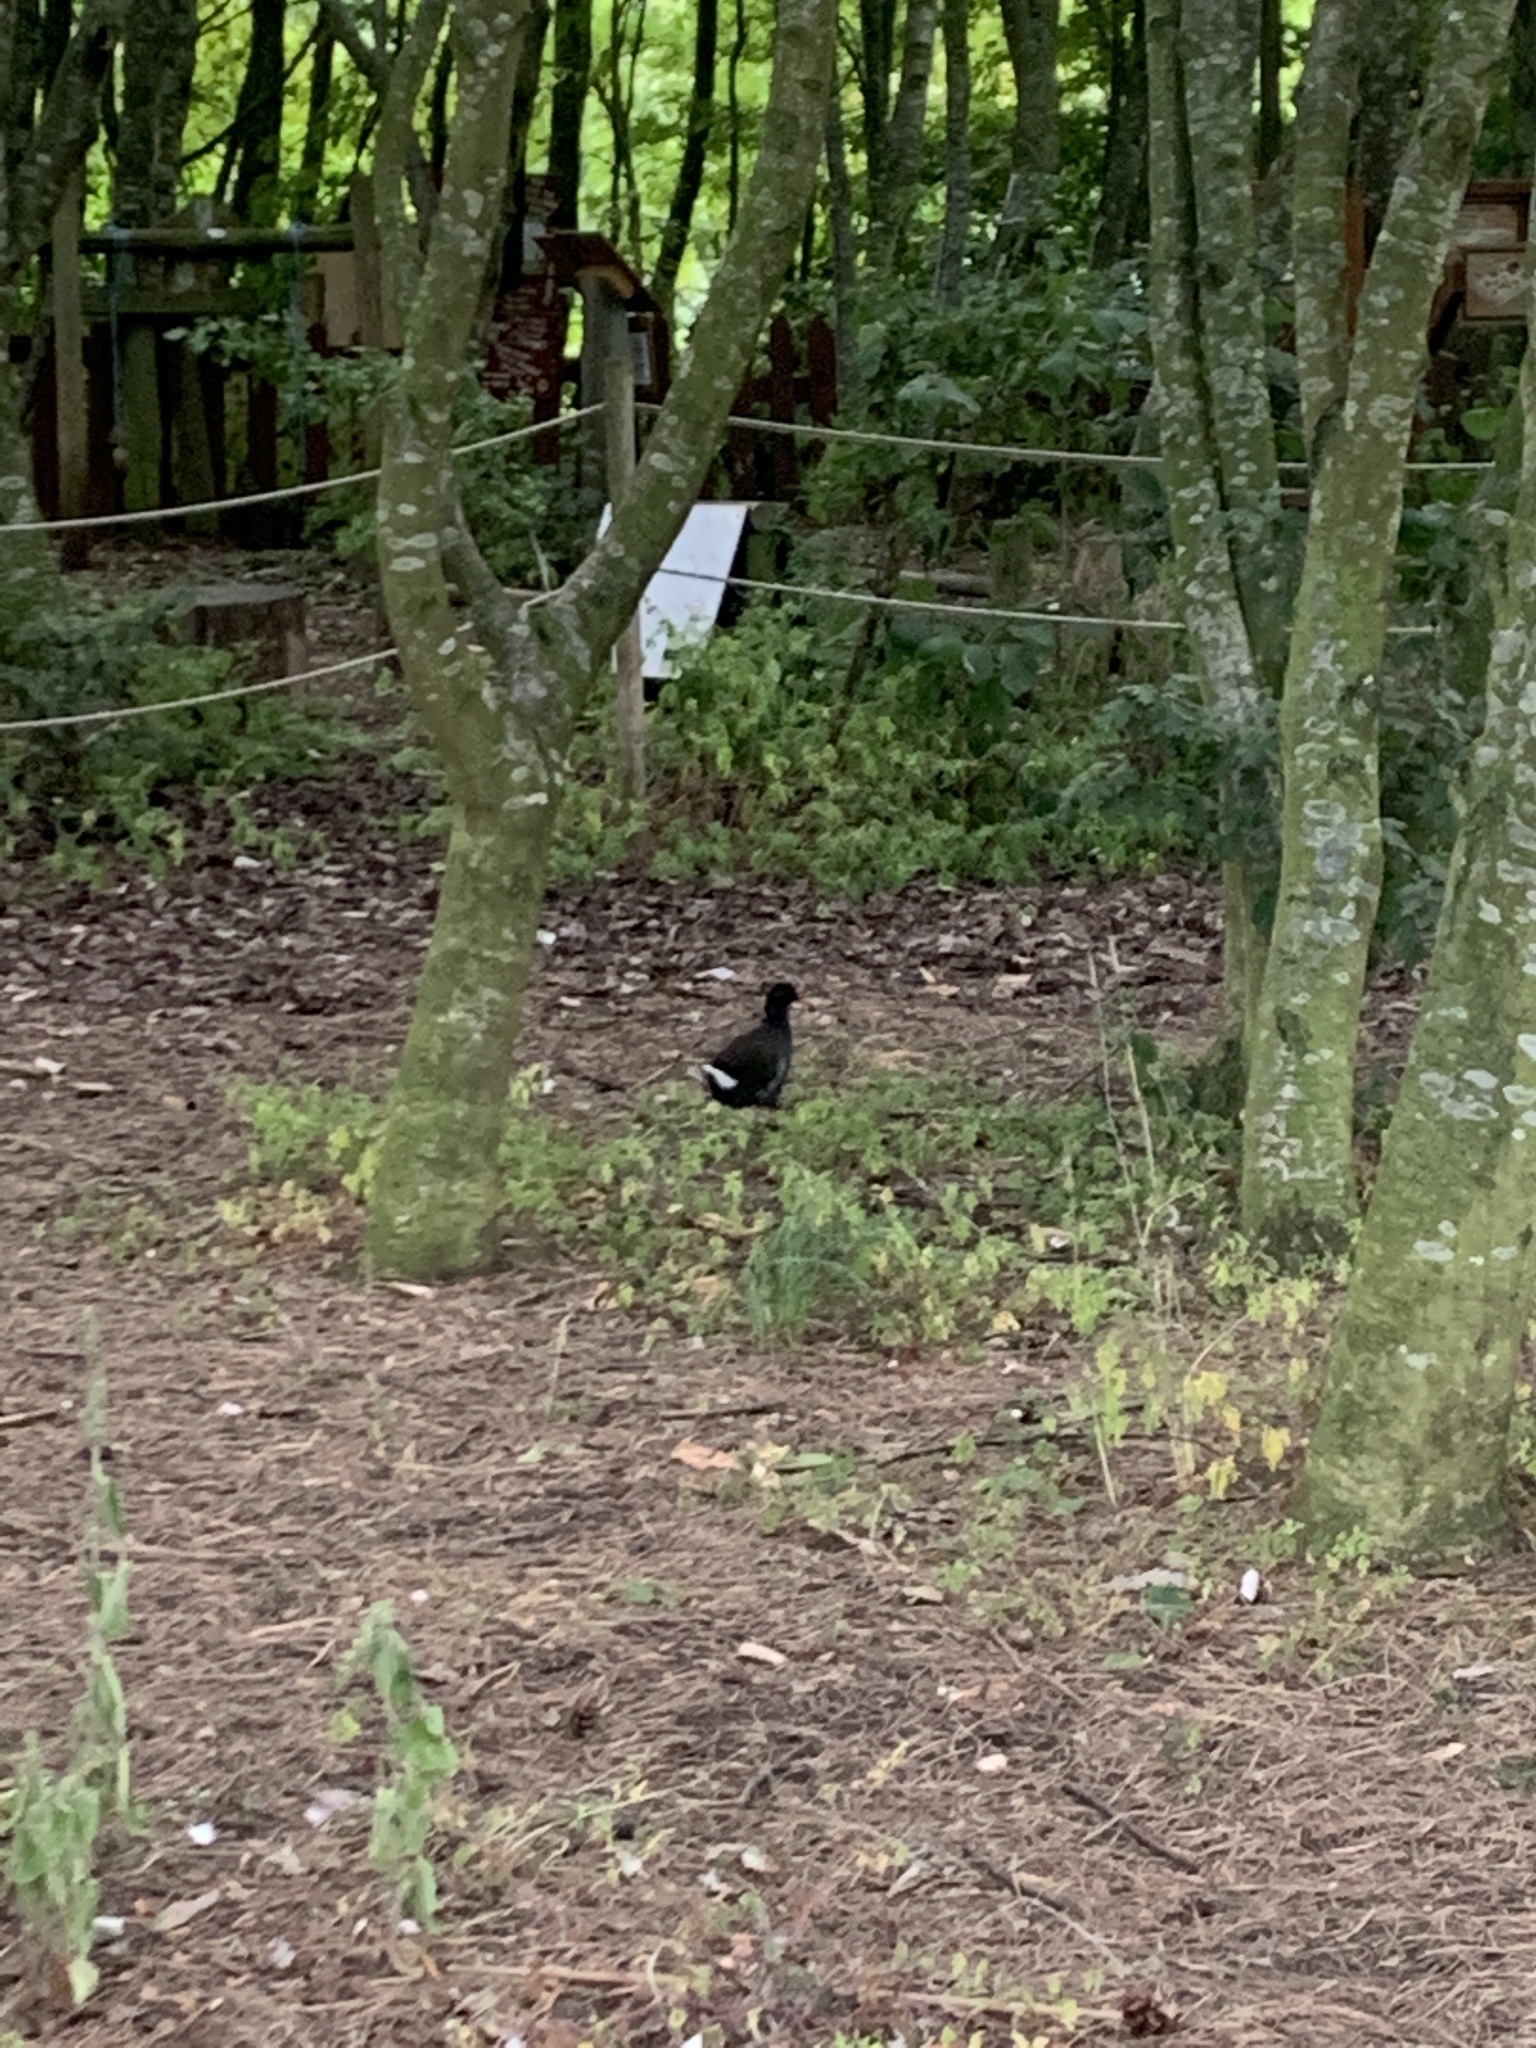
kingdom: Animalia
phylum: Chordata
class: Aves
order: Gruiformes
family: Rallidae
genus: Gallinula
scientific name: Gallinula chloropus
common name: Common moorhen
